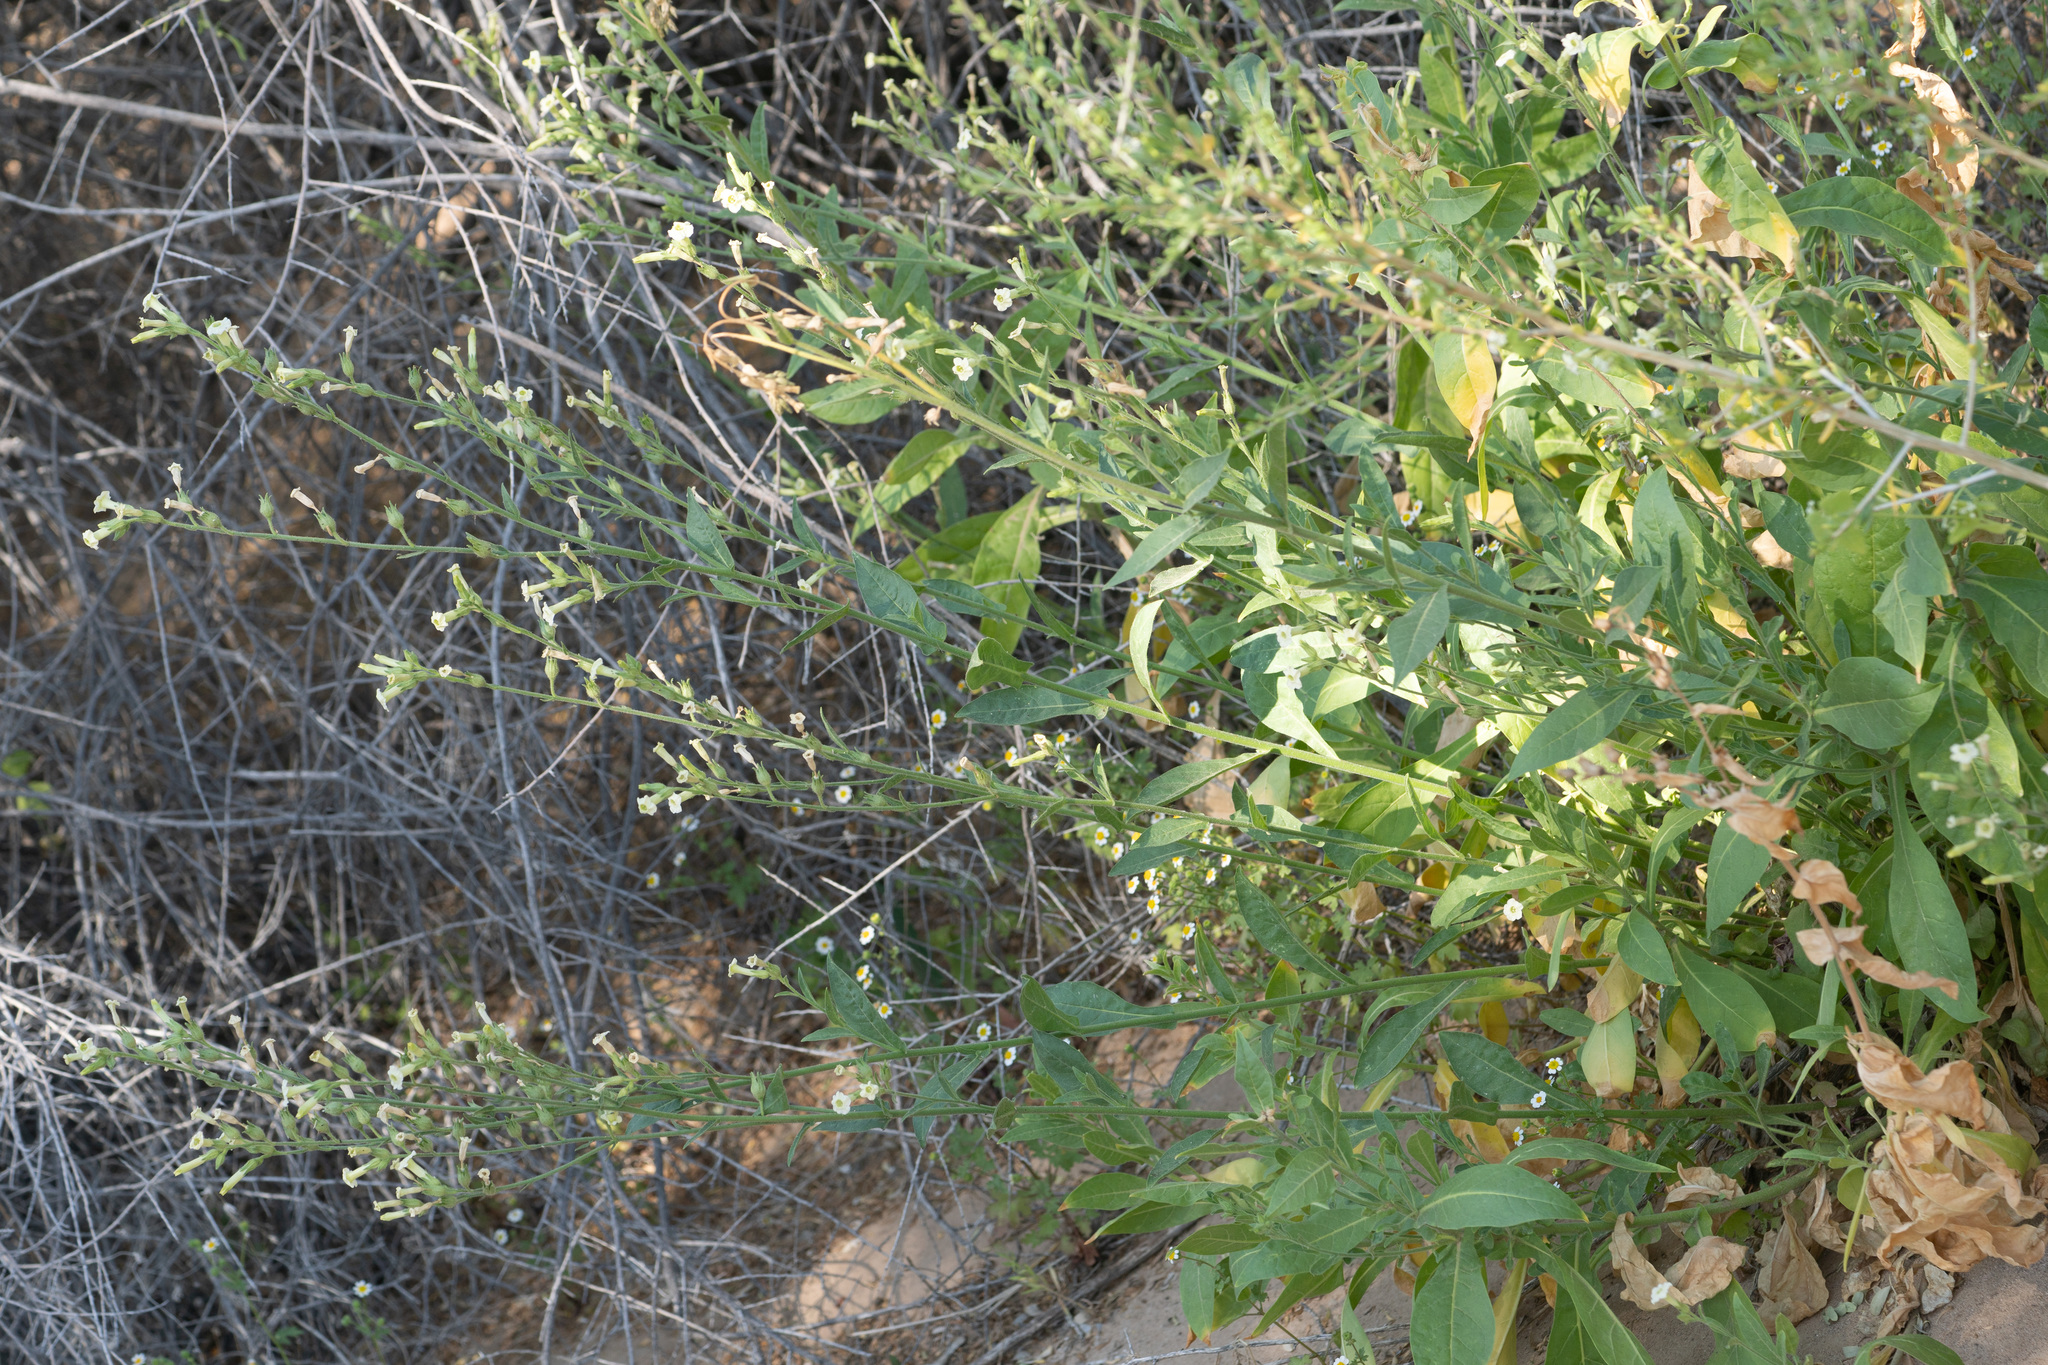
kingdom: Plantae
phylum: Tracheophyta
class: Magnoliopsida
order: Solanales
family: Solanaceae
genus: Nicotiana
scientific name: Nicotiana obtusifolia
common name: Desert tobacco
